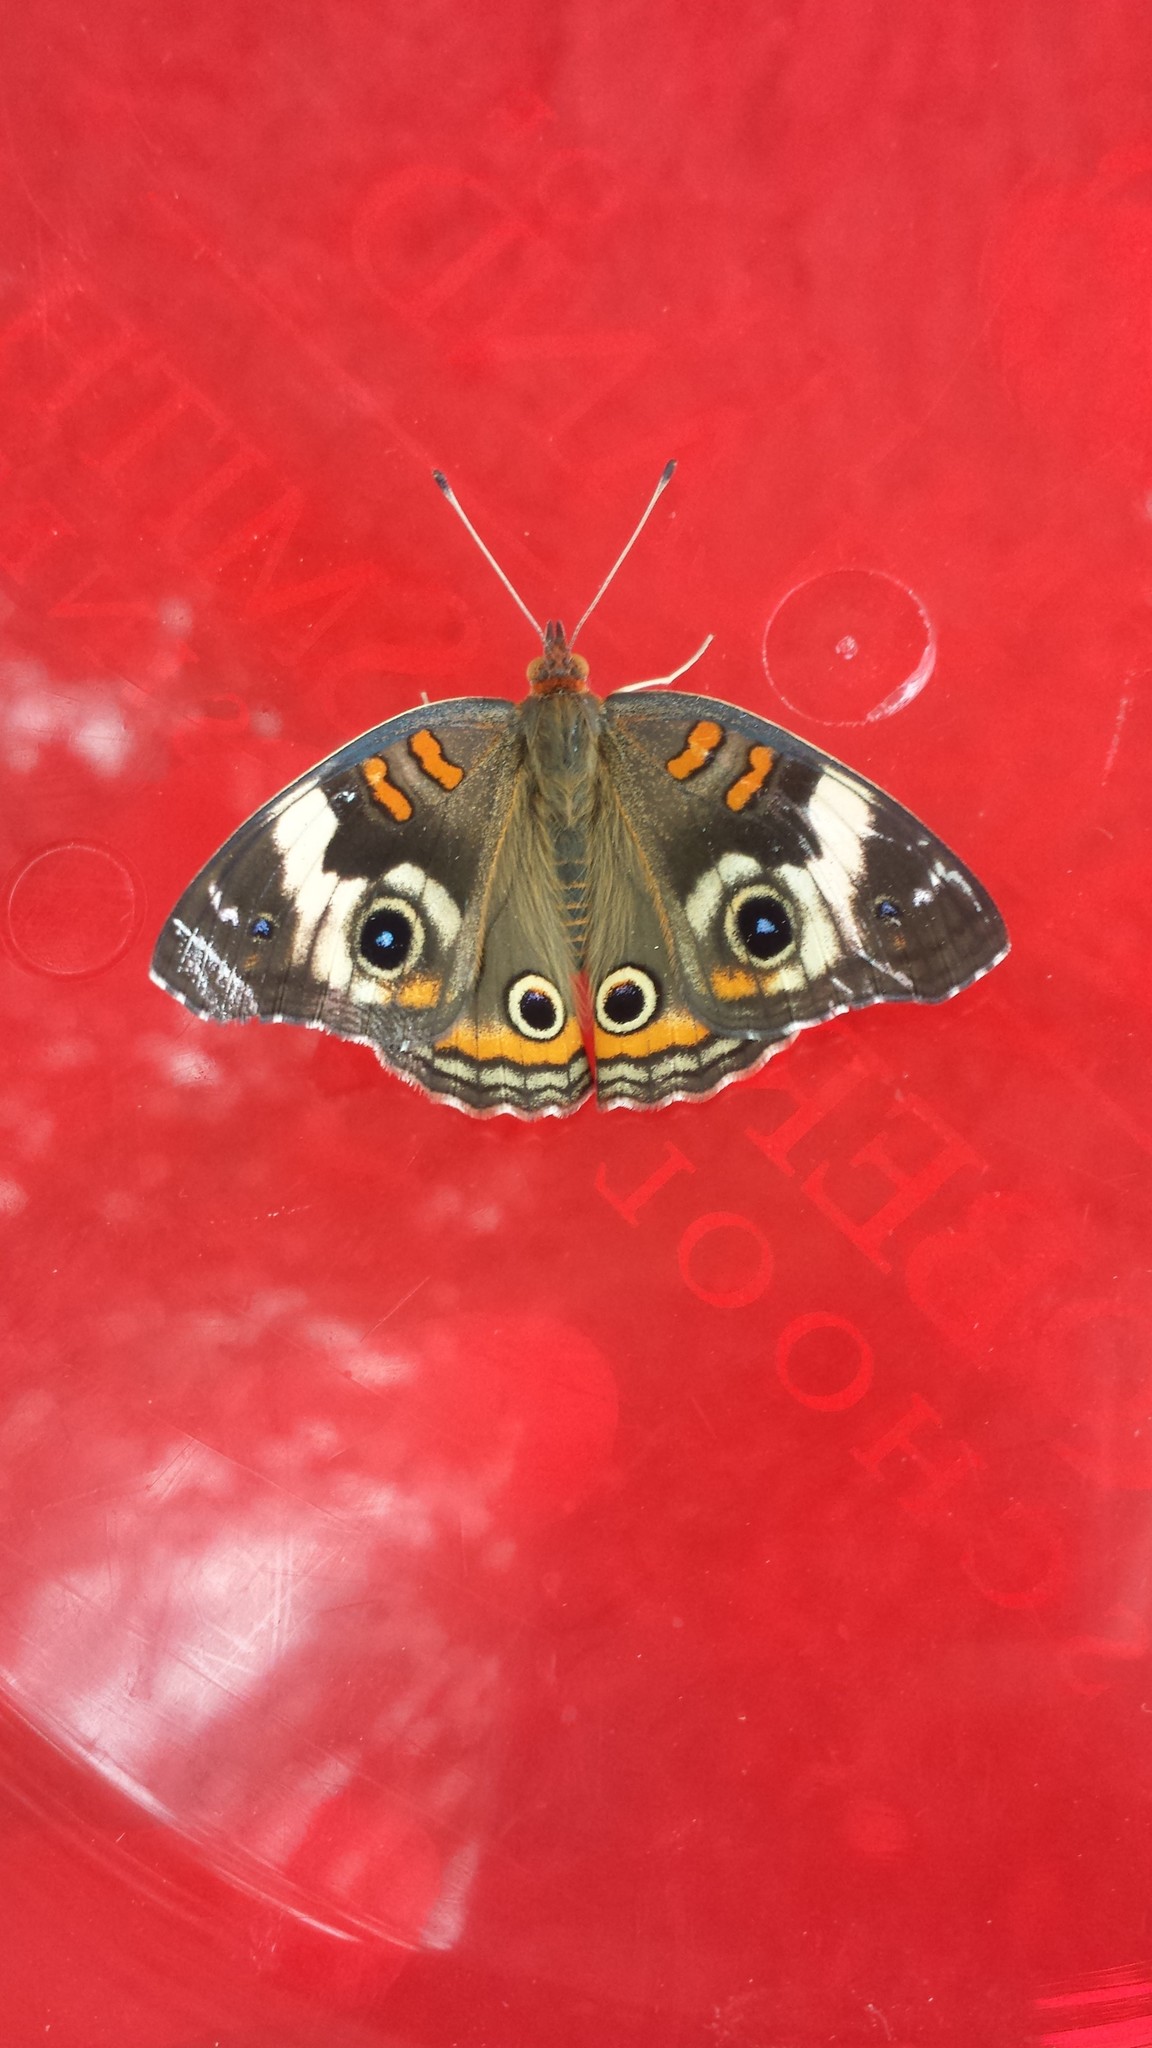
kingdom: Animalia
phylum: Arthropoda
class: Insecta
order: Lepidoptera
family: Nymphalidae
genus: Junonia
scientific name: Junonia coenia
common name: Common buckeye
